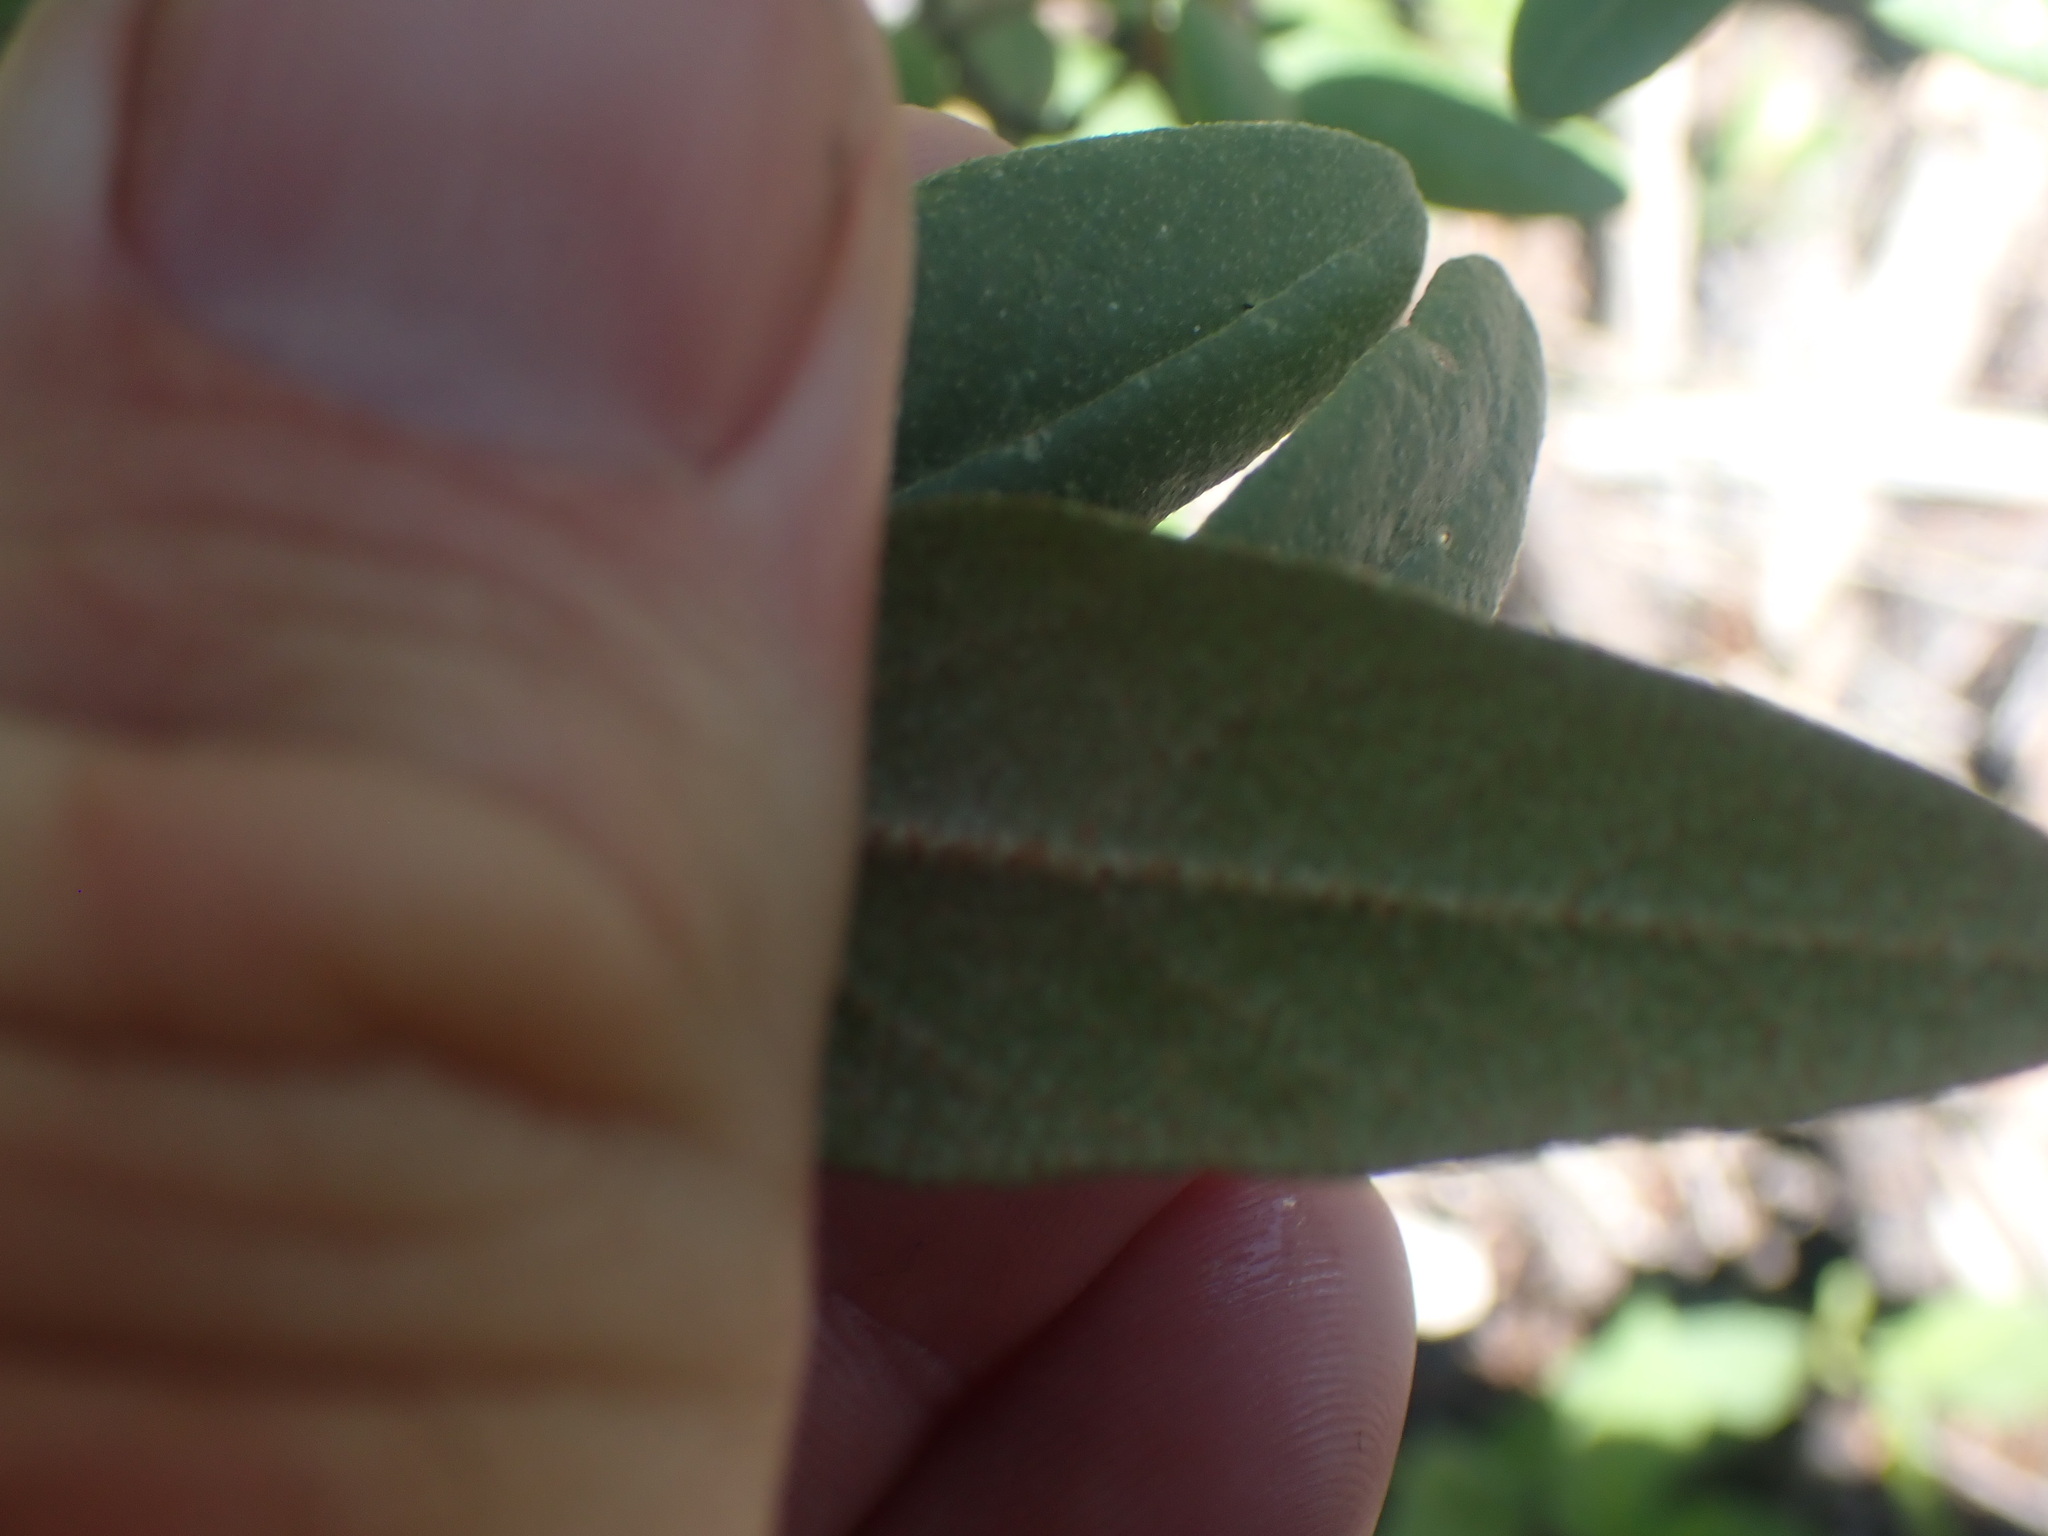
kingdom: Plantae
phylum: Tracheophyta
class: Magnoliopsida
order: Rosales
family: Elaeagnaceae
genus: Shepherdia
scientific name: Shepherdia canadensis
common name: Soapberry
